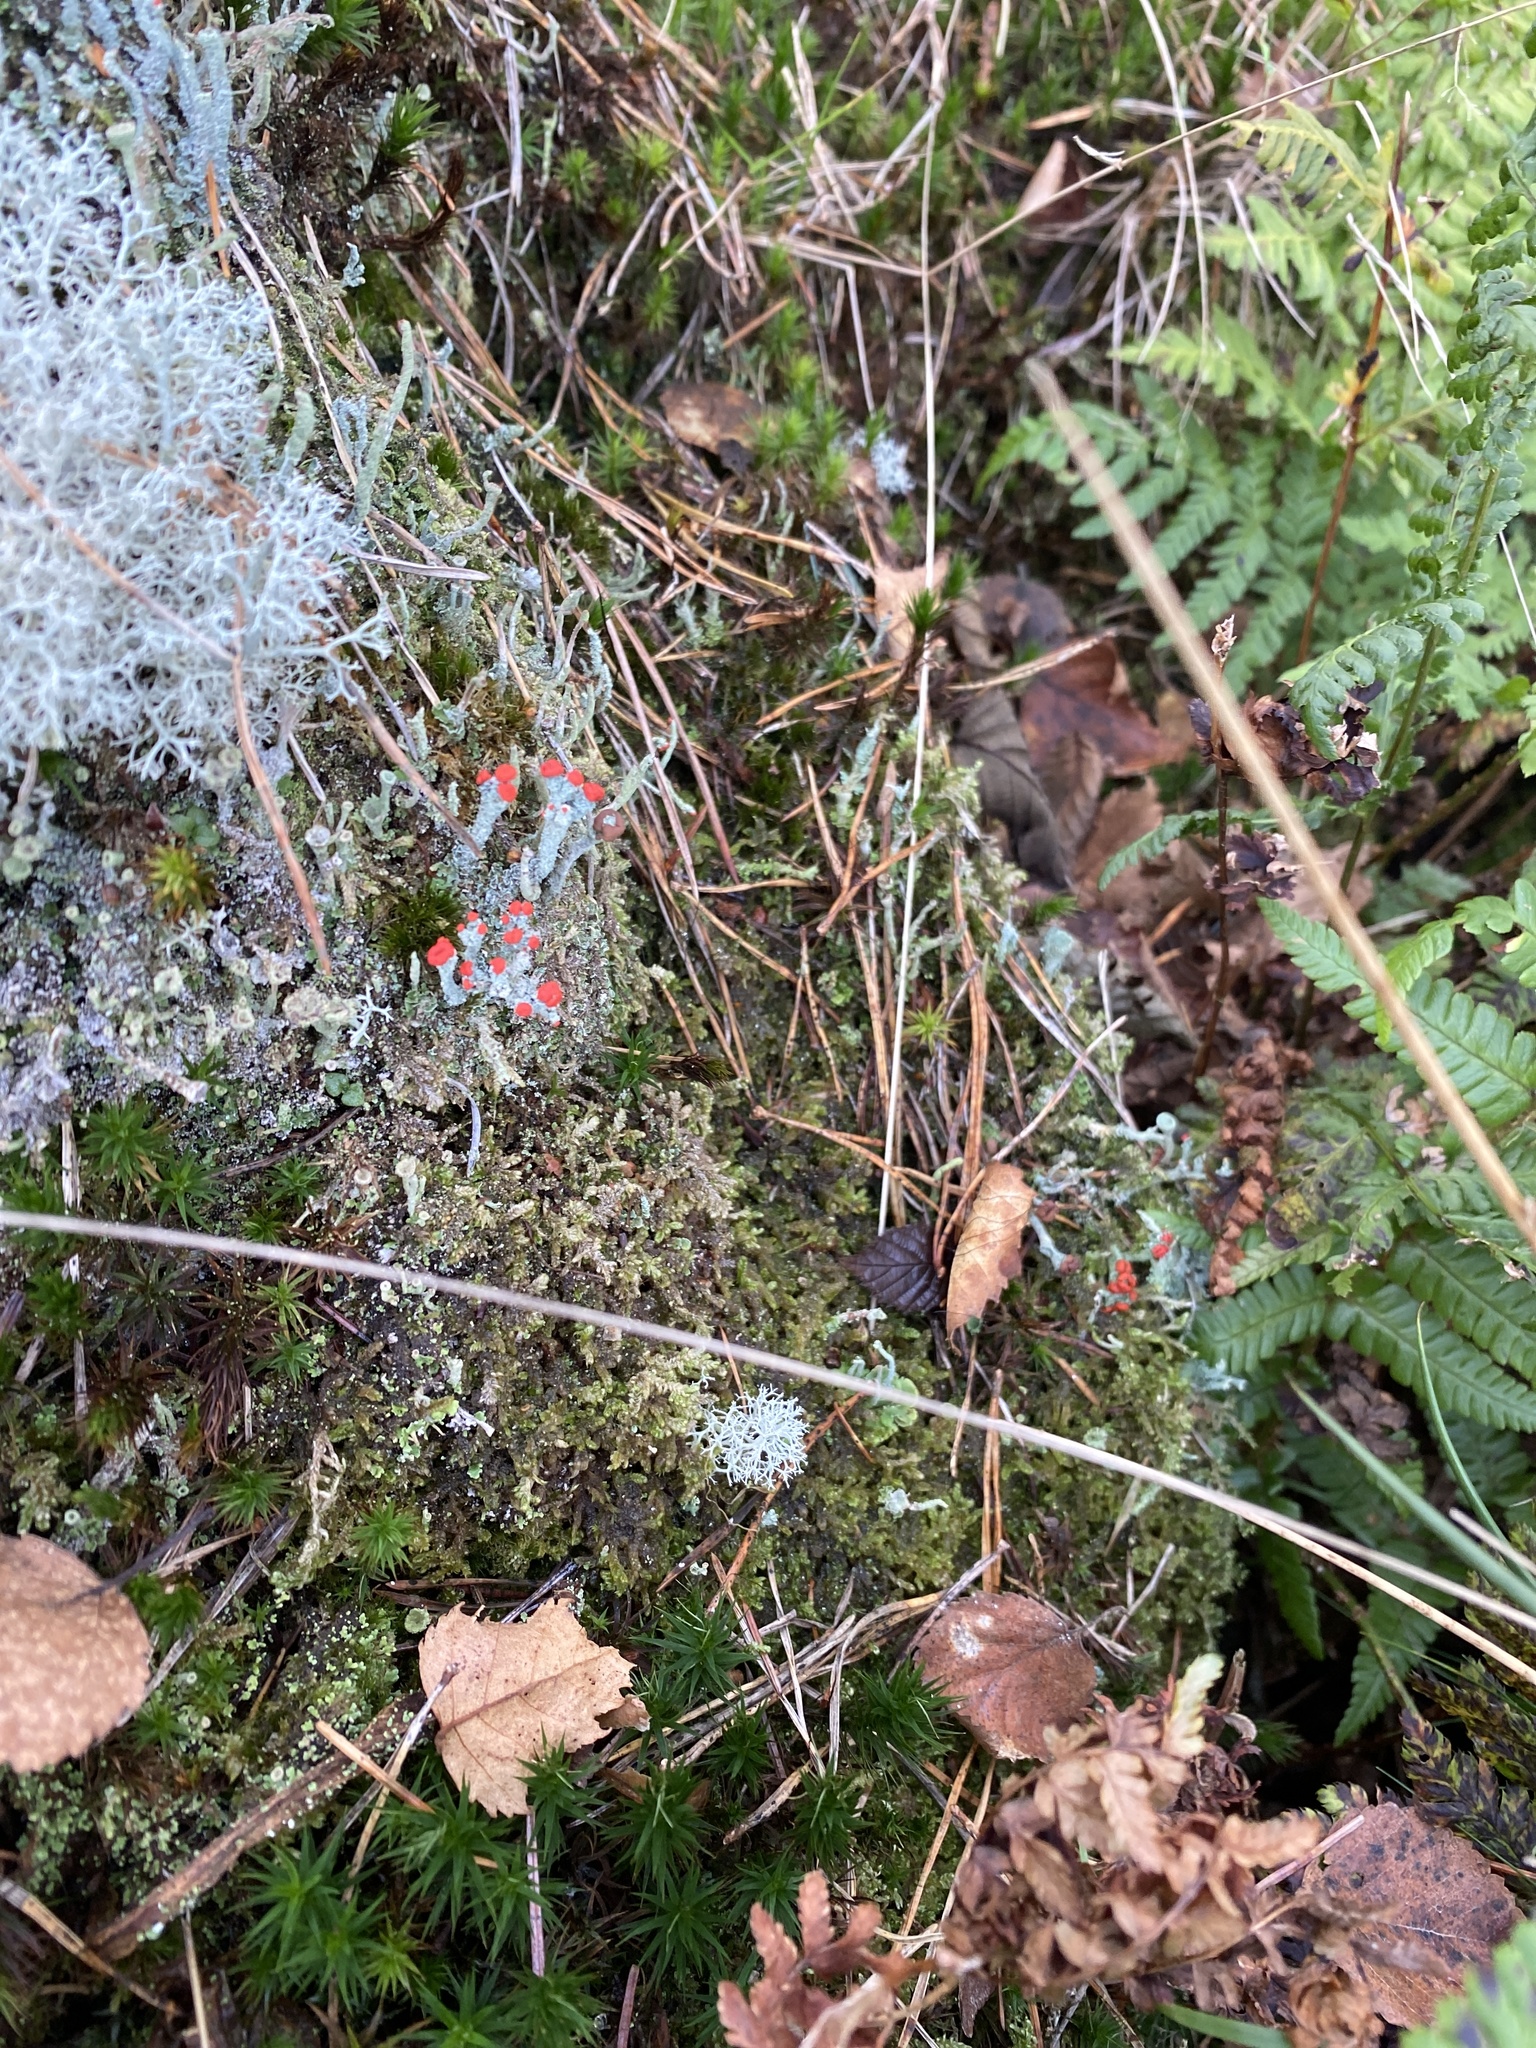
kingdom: Fungi
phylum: Ascomycota
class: Lecanoromycetes
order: Lecanorales
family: Cladoniaceae
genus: Cladonia
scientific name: Cladonia floerkeana
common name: Gritty british soldiers lichen
